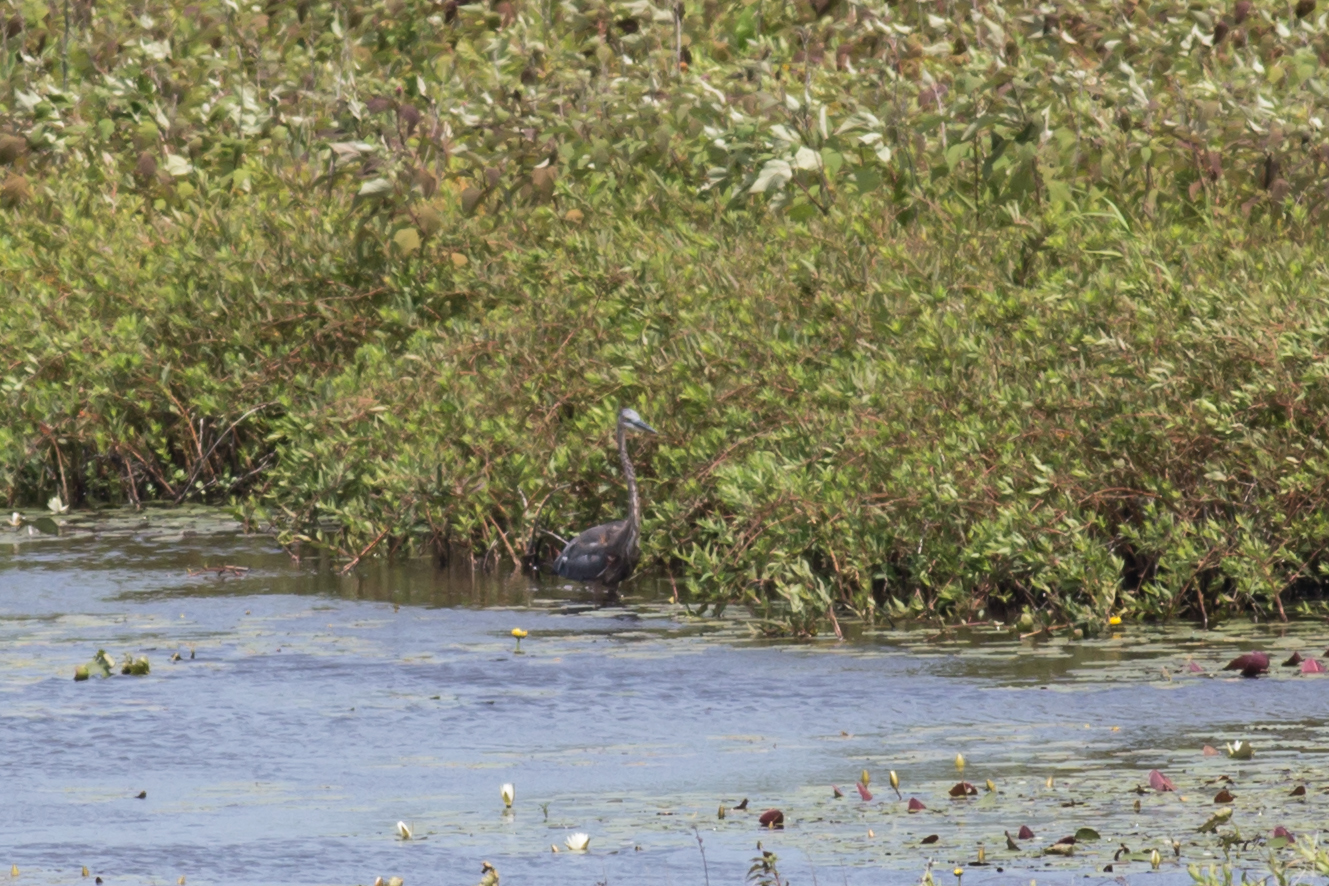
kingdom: Animalia
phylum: Chordata
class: Aves
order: Pelecaniformes
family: Ardeidae
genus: Ardea
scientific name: Ardea herodias
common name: Great blue heron
